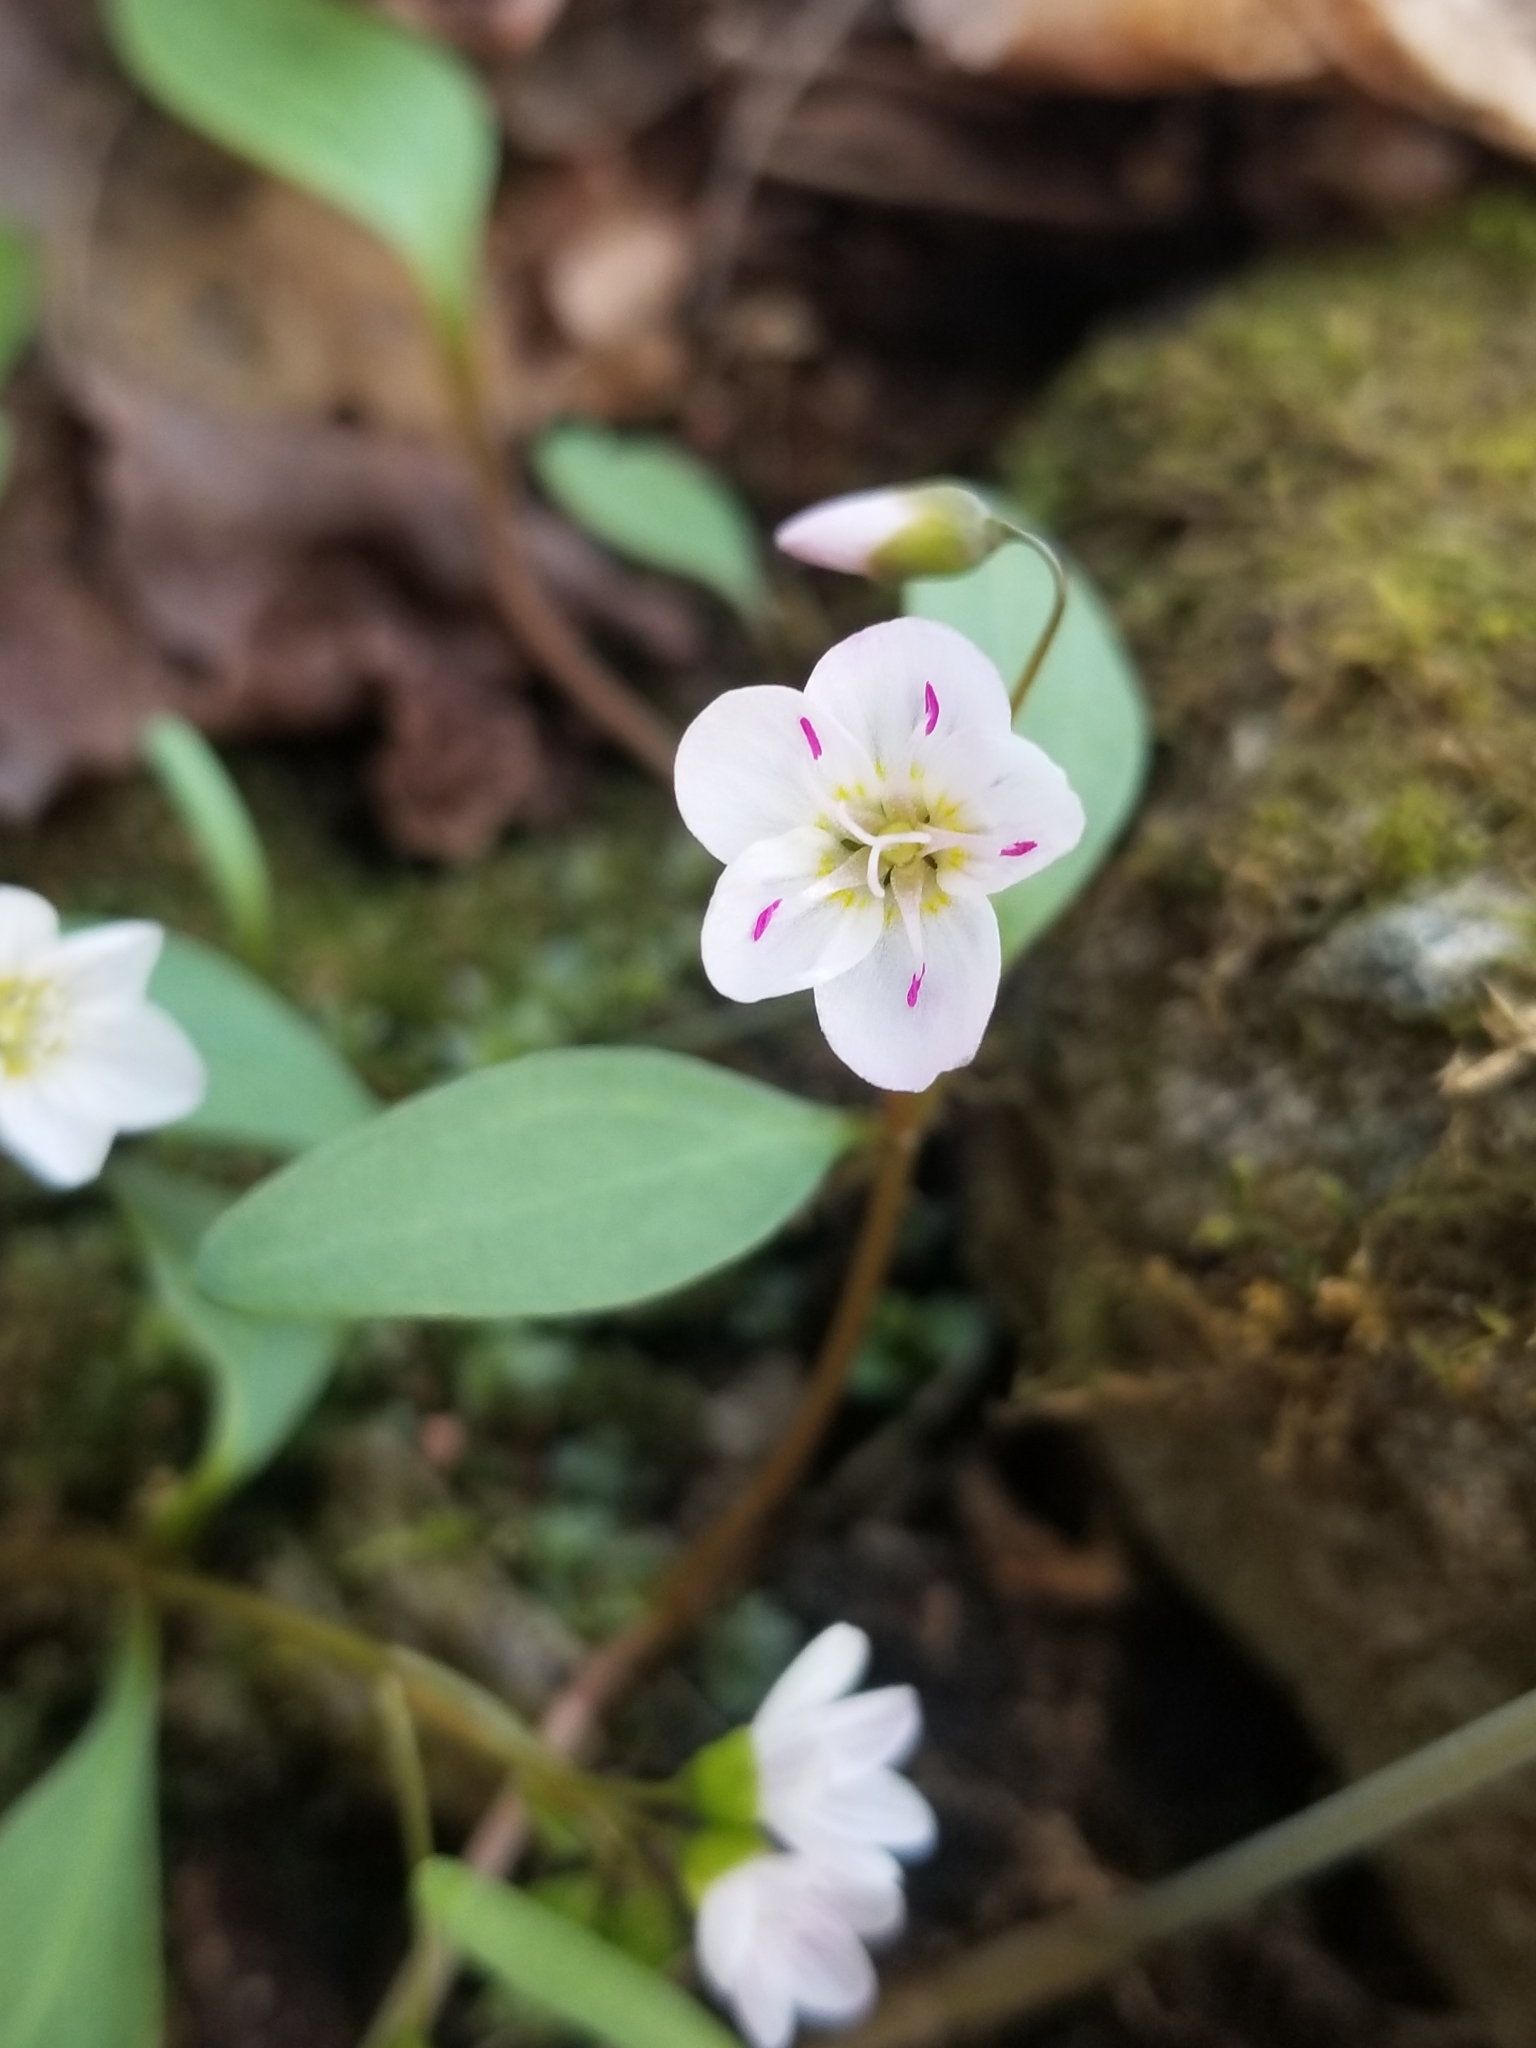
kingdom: Plantae
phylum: Tracheophyta
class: Magnoliopsida
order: Caryophyllales
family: Montiaceae
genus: Claytonia
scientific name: Claytonia caroliniana
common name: Carolina spring beauty
